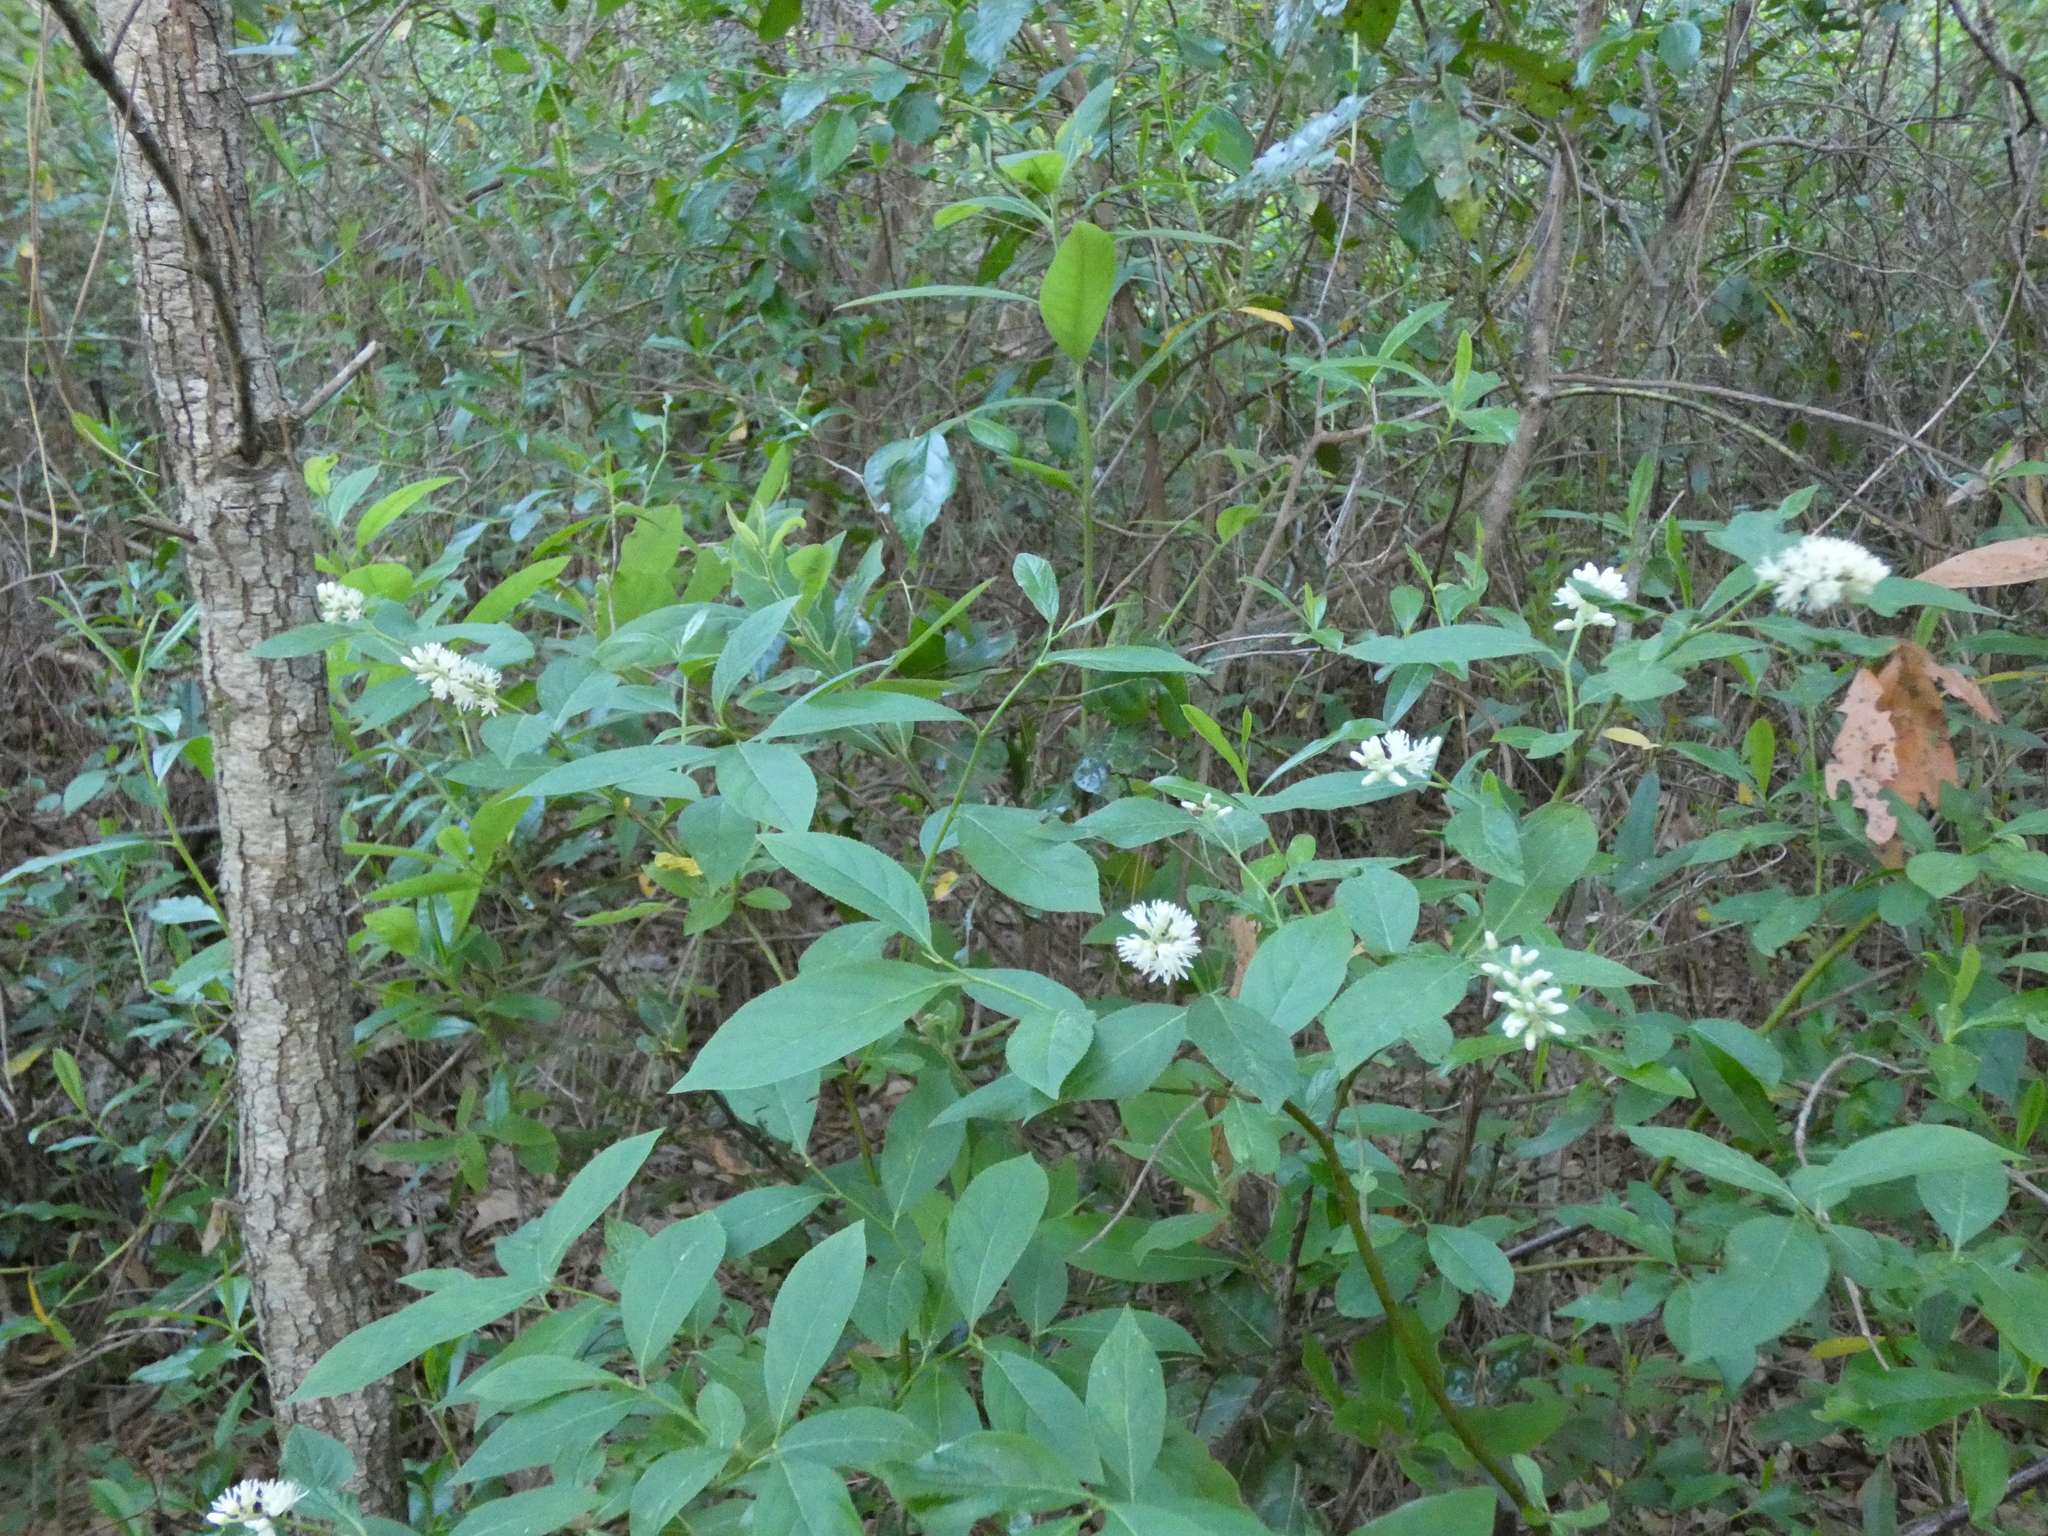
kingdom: Plantae
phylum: Tracheophyta
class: Magnoliopsida
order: Saxifragales
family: Iteaceae
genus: Itea
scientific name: Itea virginica
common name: Sweetspire
